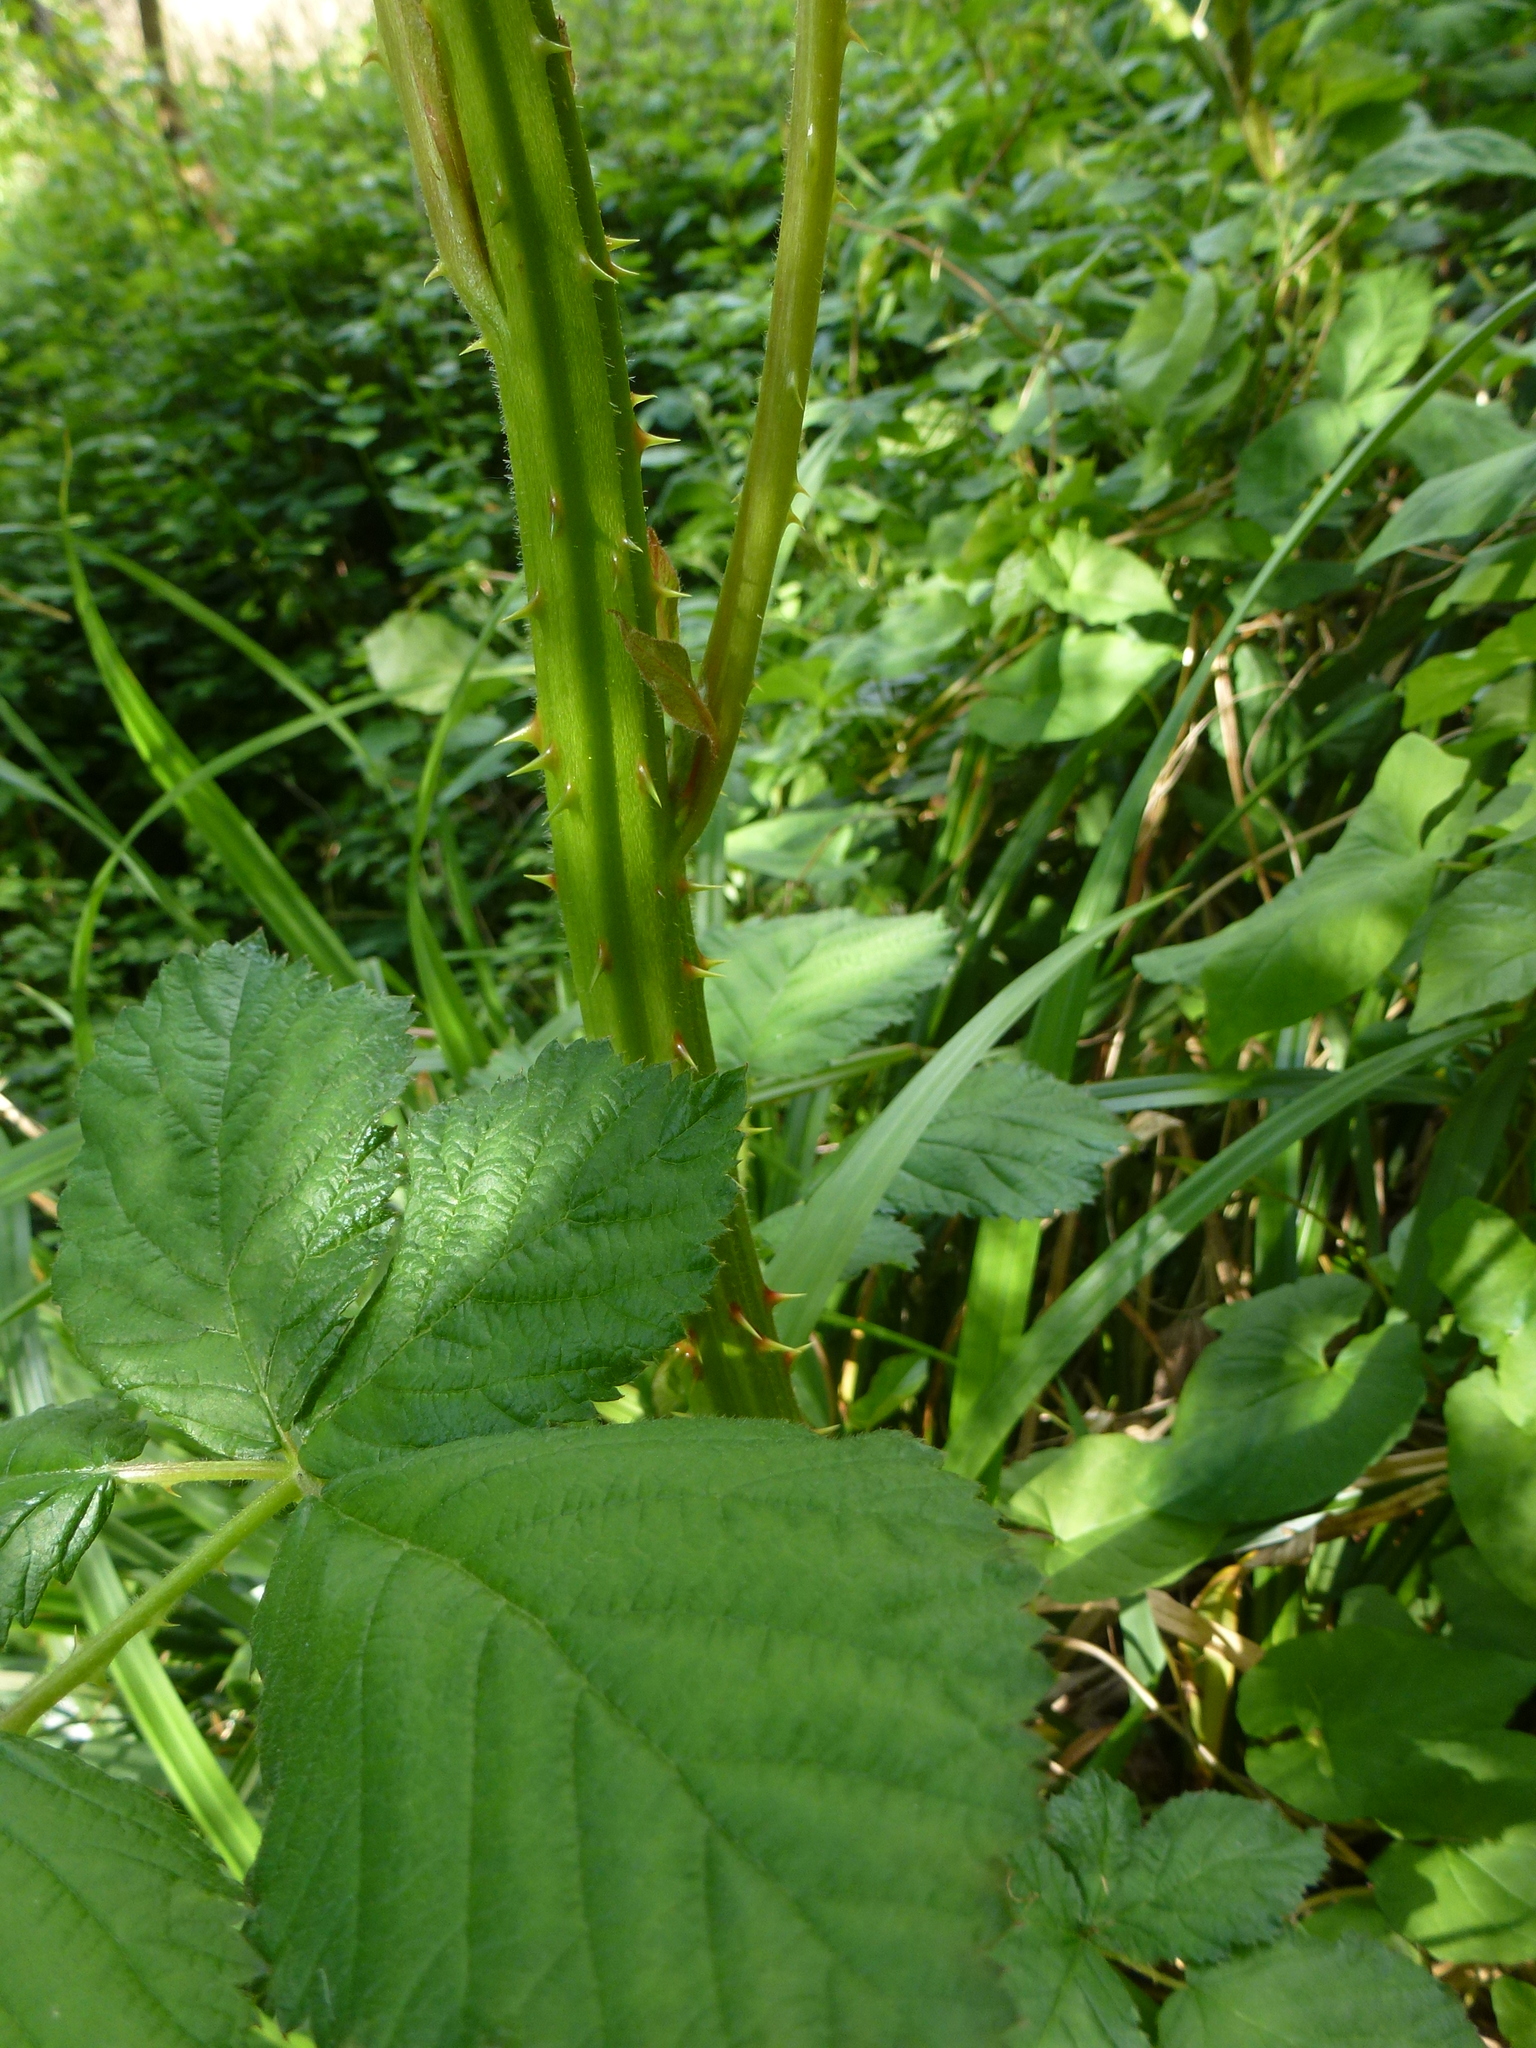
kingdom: Plantae
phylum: Tracheophyta
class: Magnoliopsida
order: Rosales
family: Rosaceae
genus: Rubus
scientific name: Rubus armeniacus
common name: Himalayan blackberry
